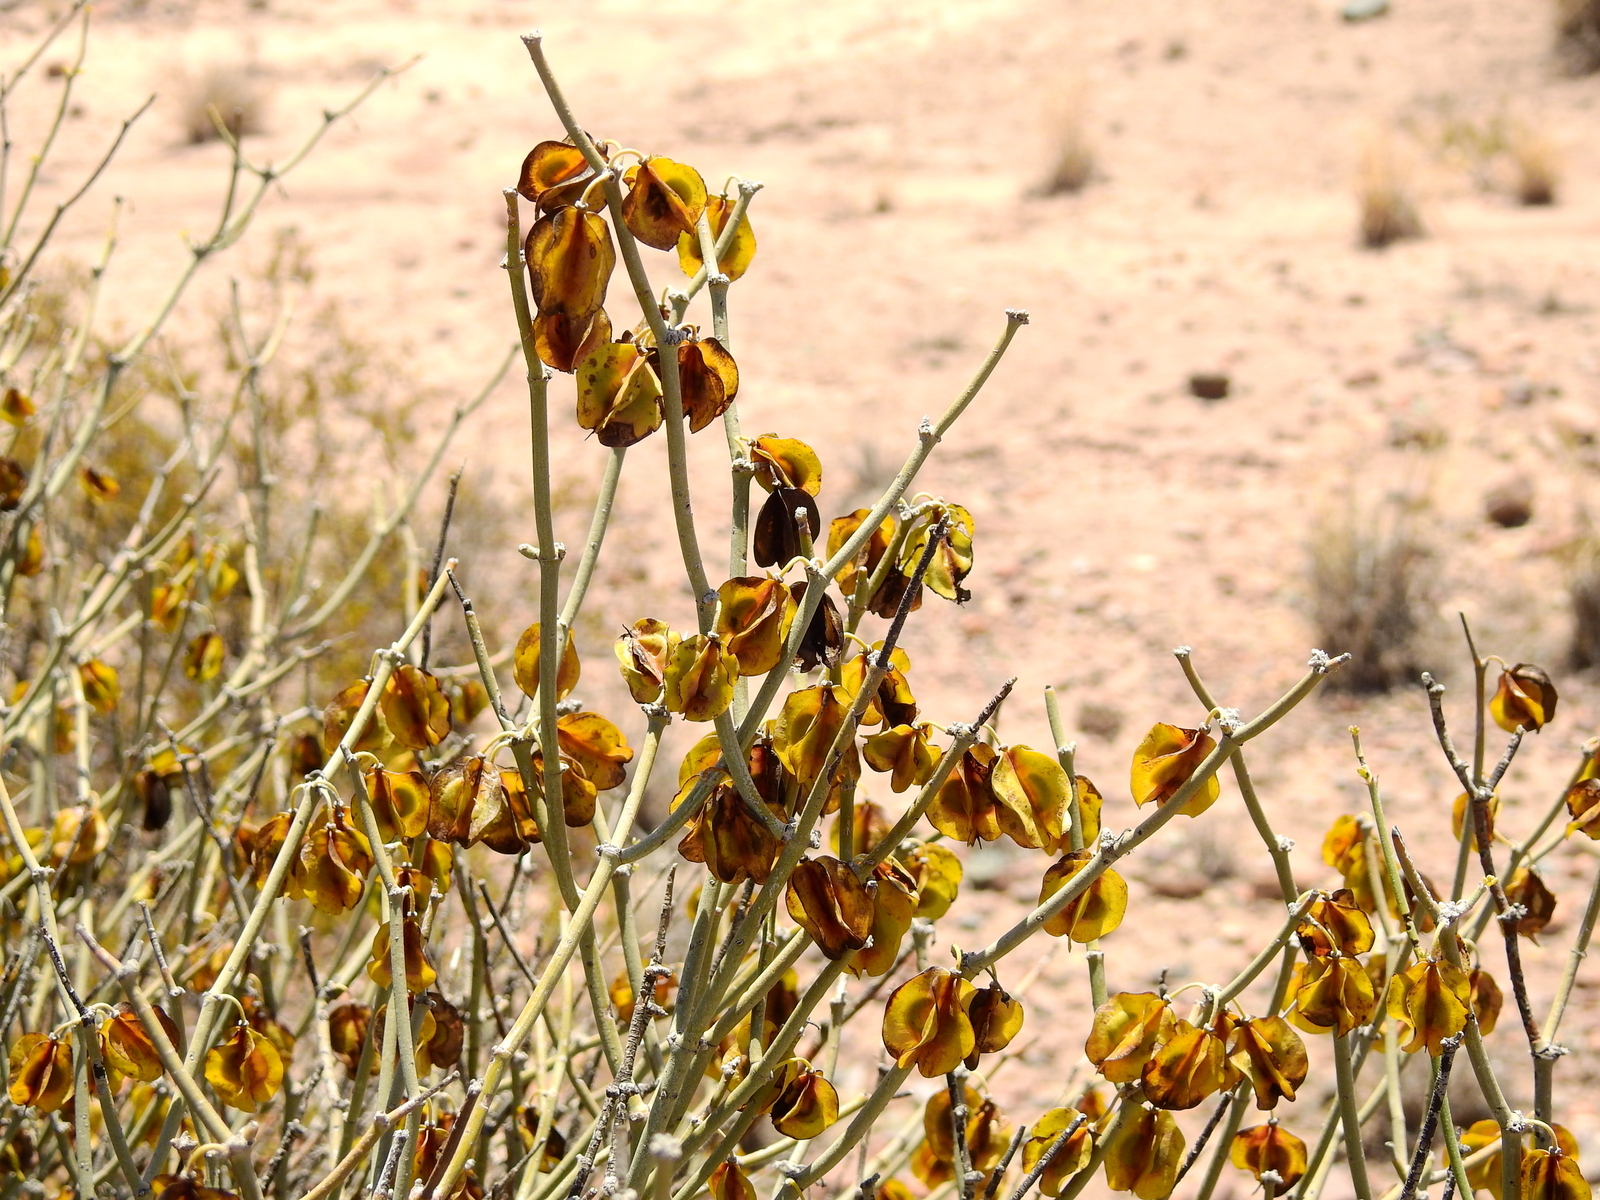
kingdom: Plantae
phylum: Tracheophyta
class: Magnoliopsida
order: Zygophyllales
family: Zygophyllaceae
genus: Bulnesia
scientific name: Bulnesia retama
